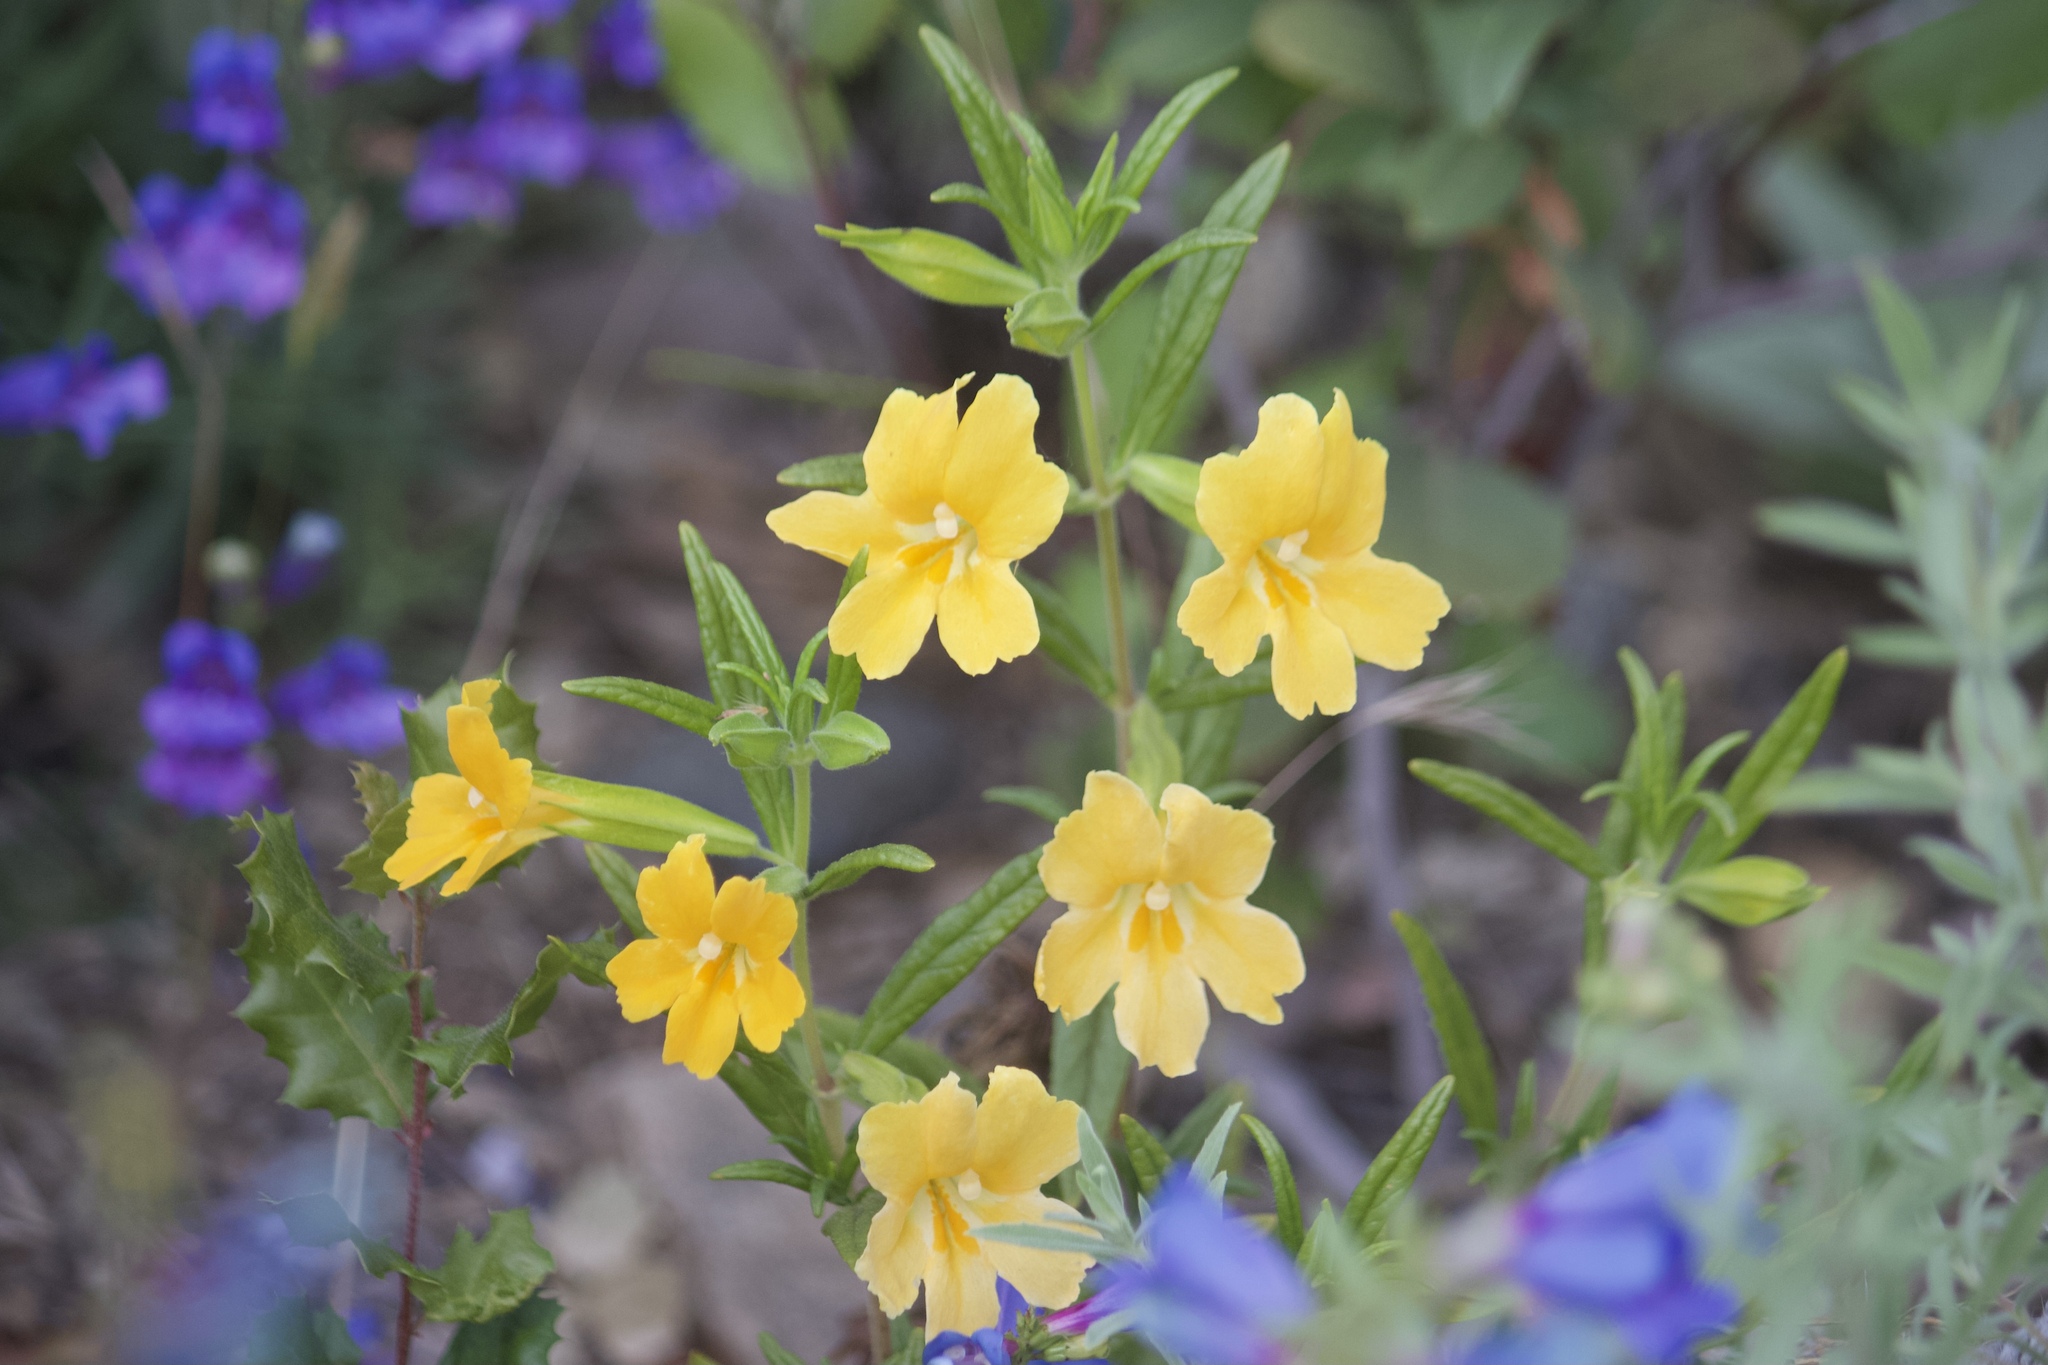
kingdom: Plantae
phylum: Tracheophyta
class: Magnoliopsida
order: Lamiales
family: Phrymaceae
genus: Diplacus
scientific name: Diplacus longiflorus
